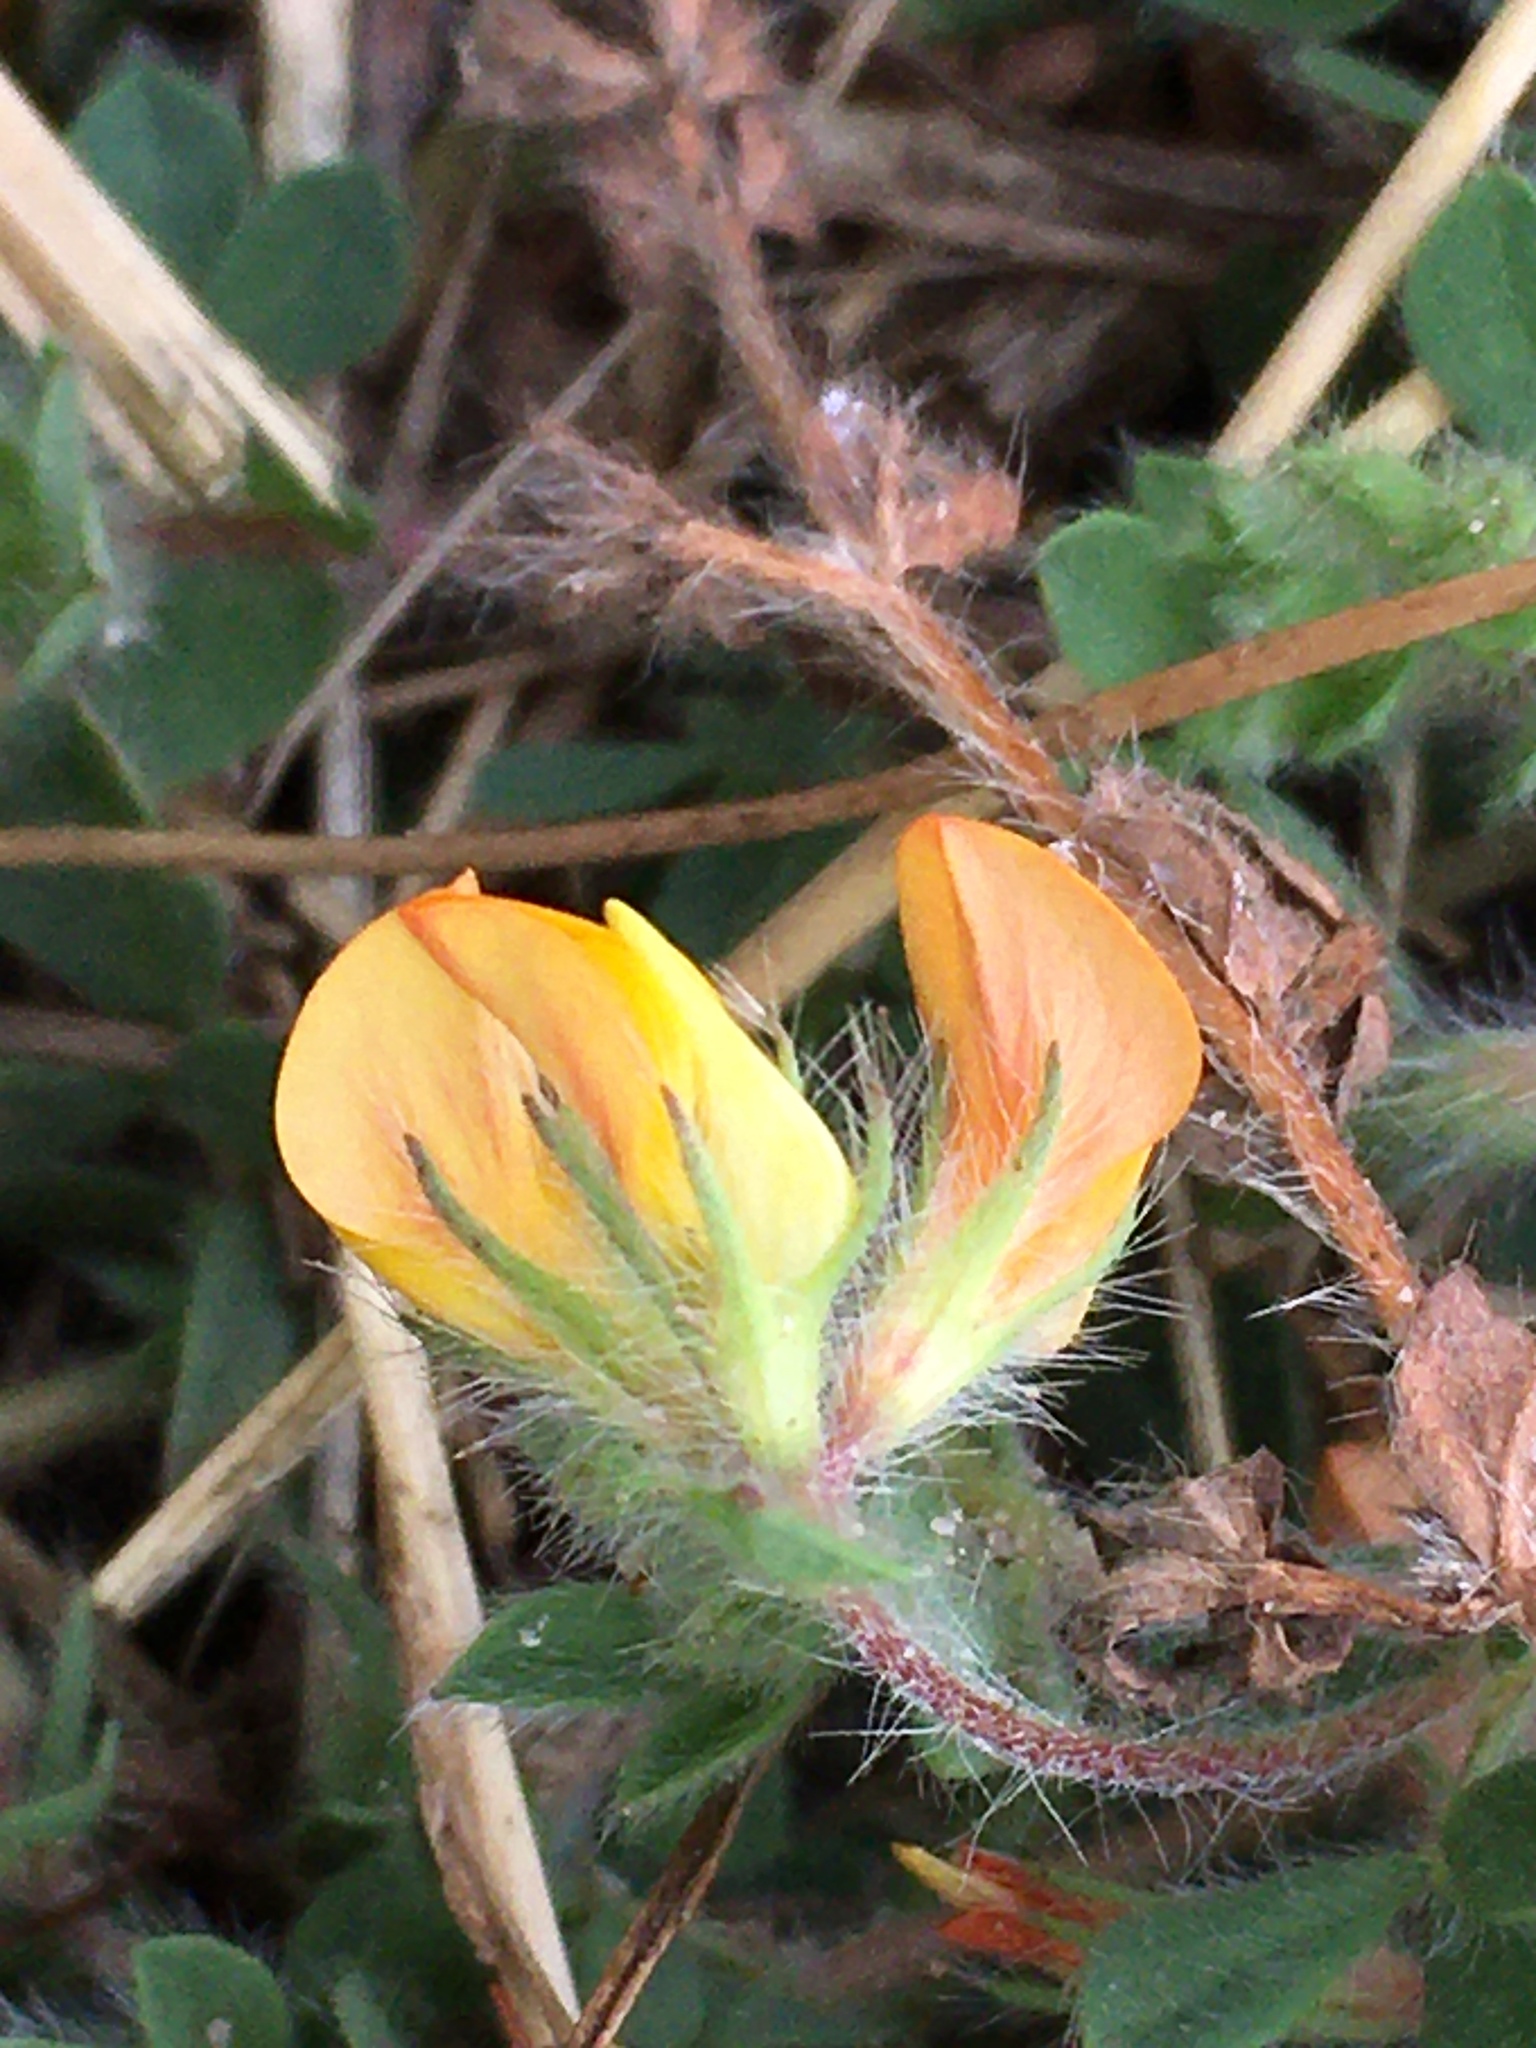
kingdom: Plantae
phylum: Tracheophyta
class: Magnoliopsida
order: Fabales
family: Fabaceae
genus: Lotus
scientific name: Lotus subbiflorus
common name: Hairy bird's-foot trefoil
